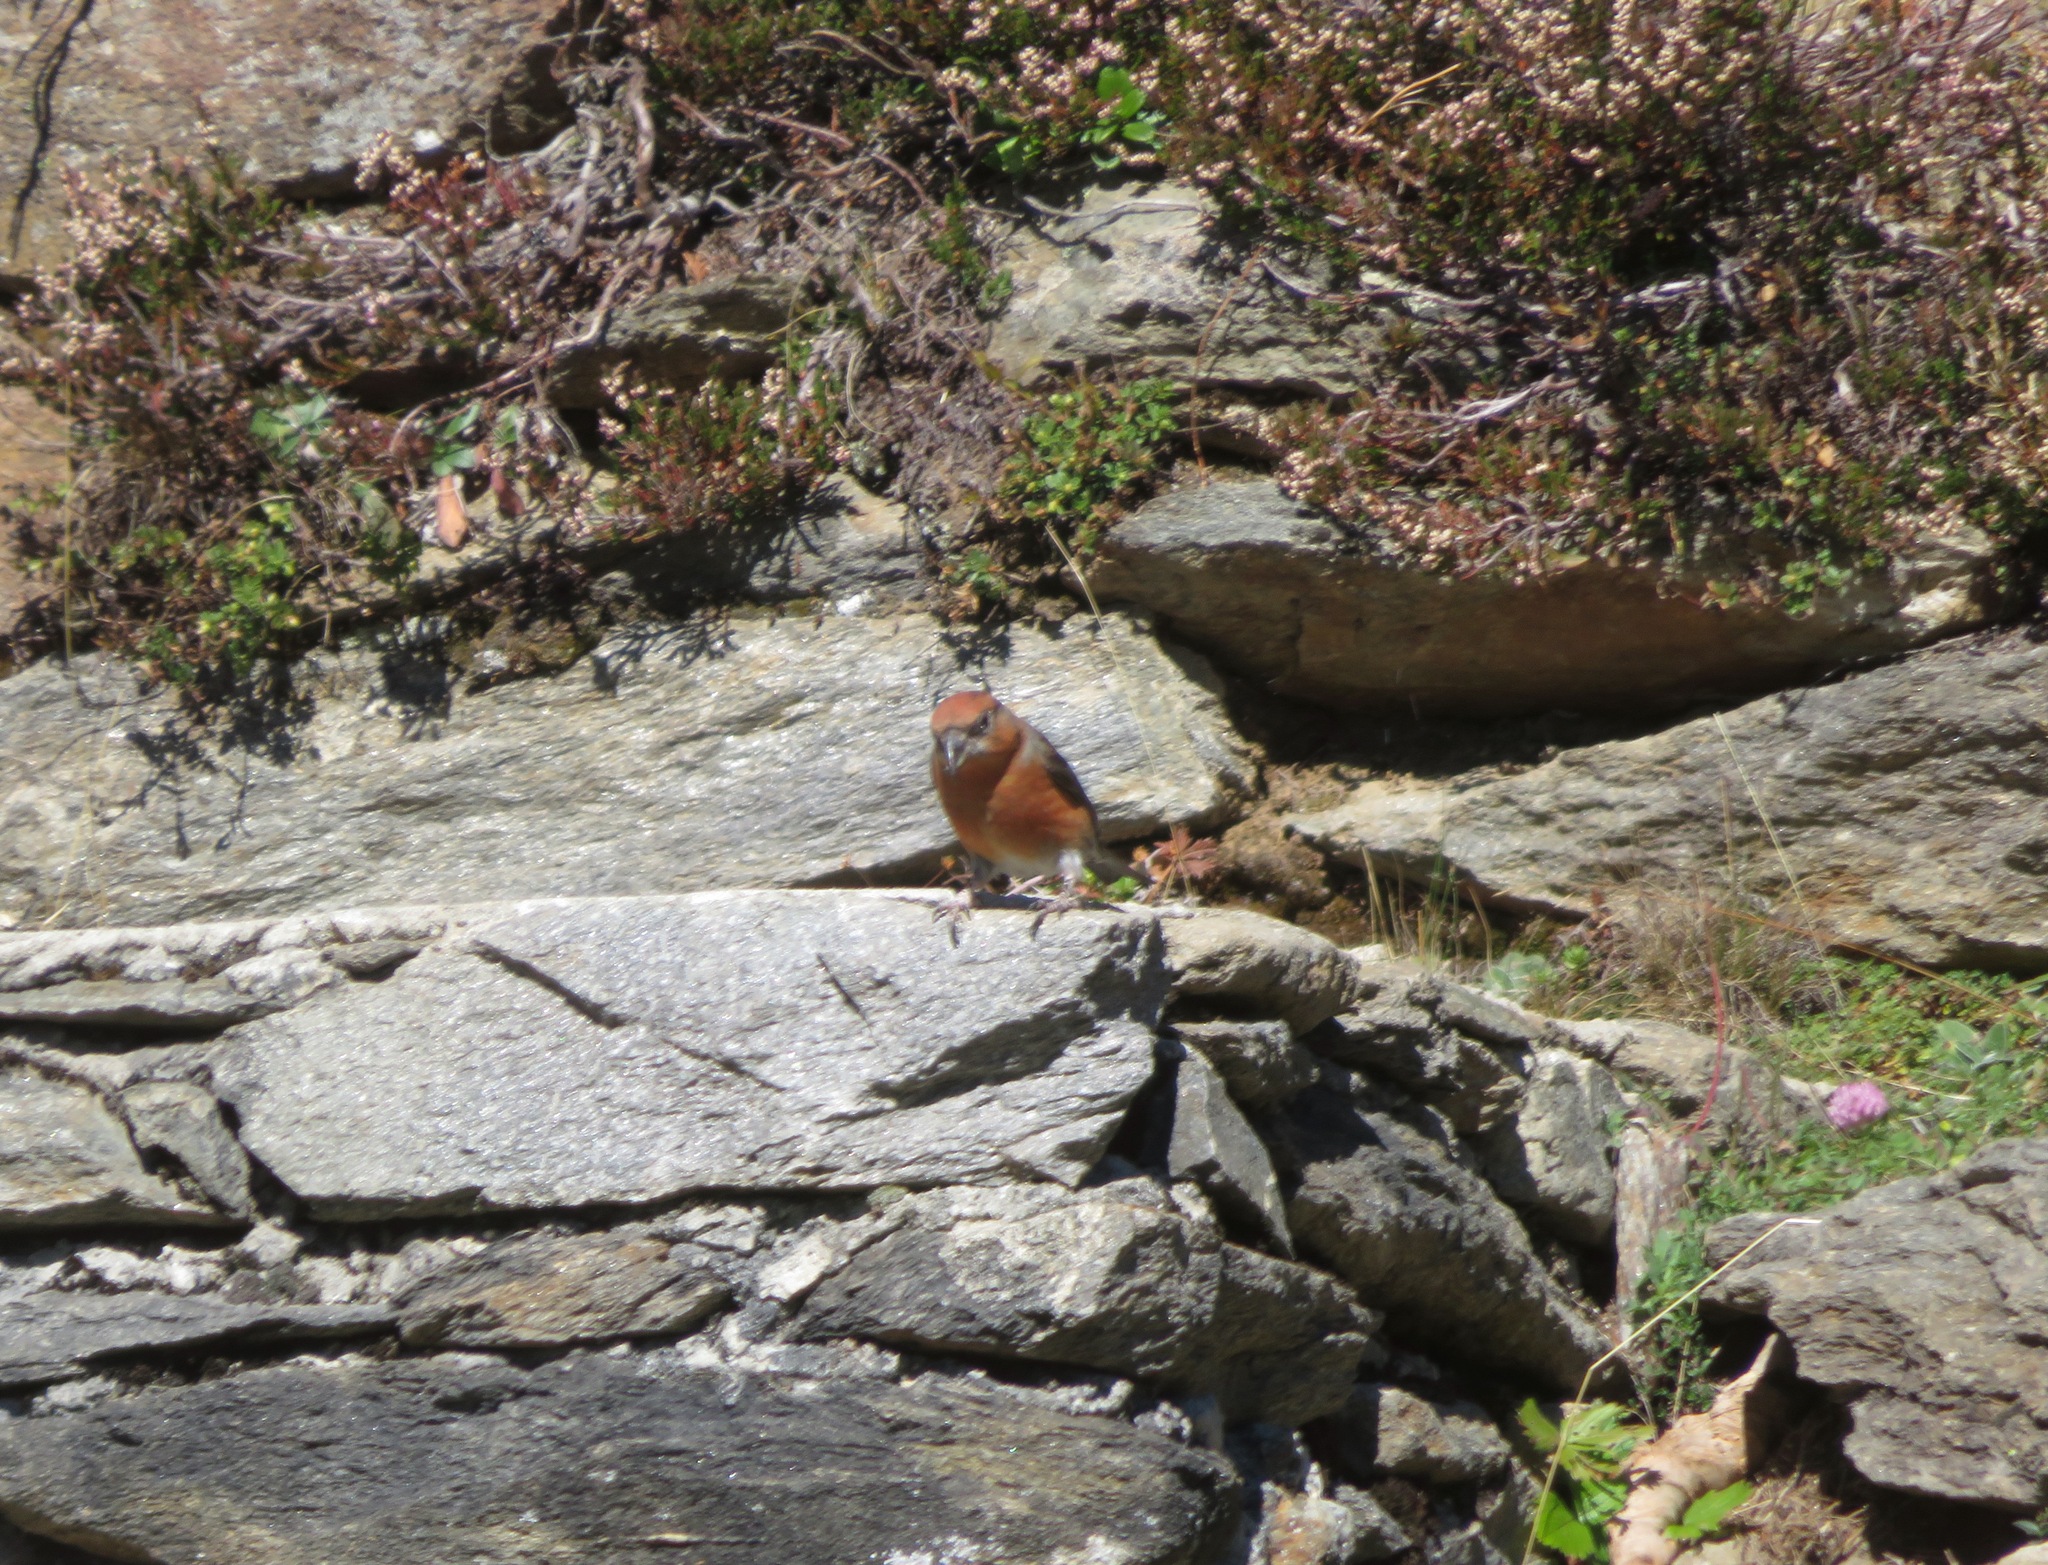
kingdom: Animalia
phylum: Chordata
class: Aves
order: Passeriformes
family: Fringillidae
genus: Loxia
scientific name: Loxia curvirostra
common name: Red crossbill
